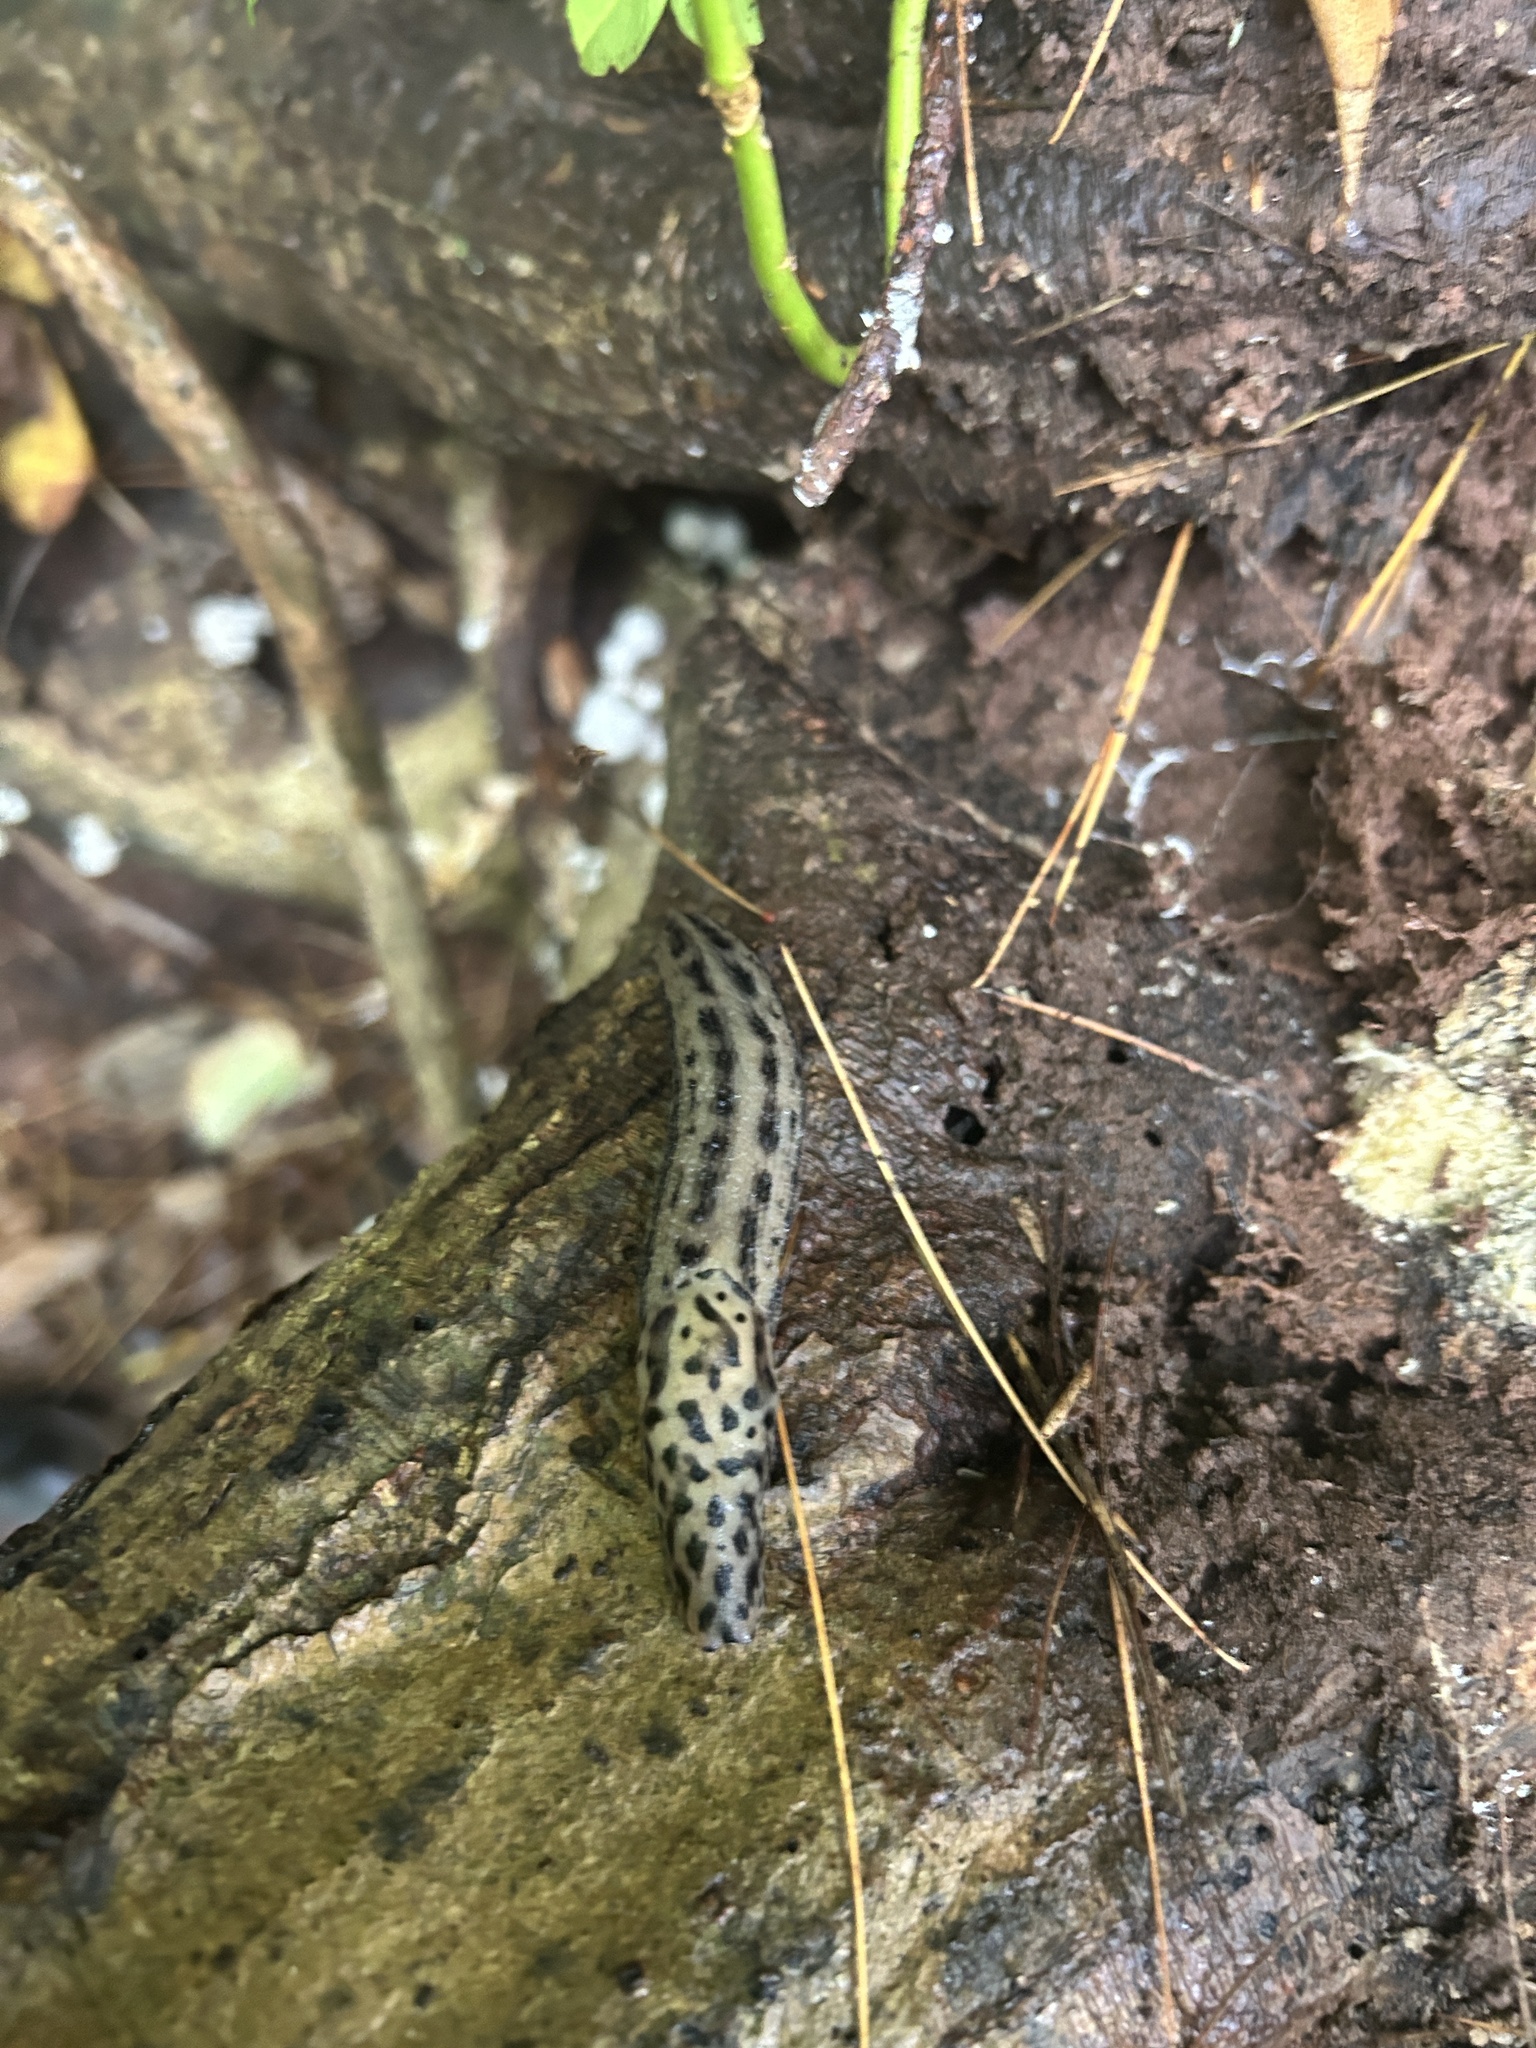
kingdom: Animalia
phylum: Mollusca
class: Gastropoda
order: Stylommatophora
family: Limacidae
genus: Limax
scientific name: Limax maximus
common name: Great grey slug
